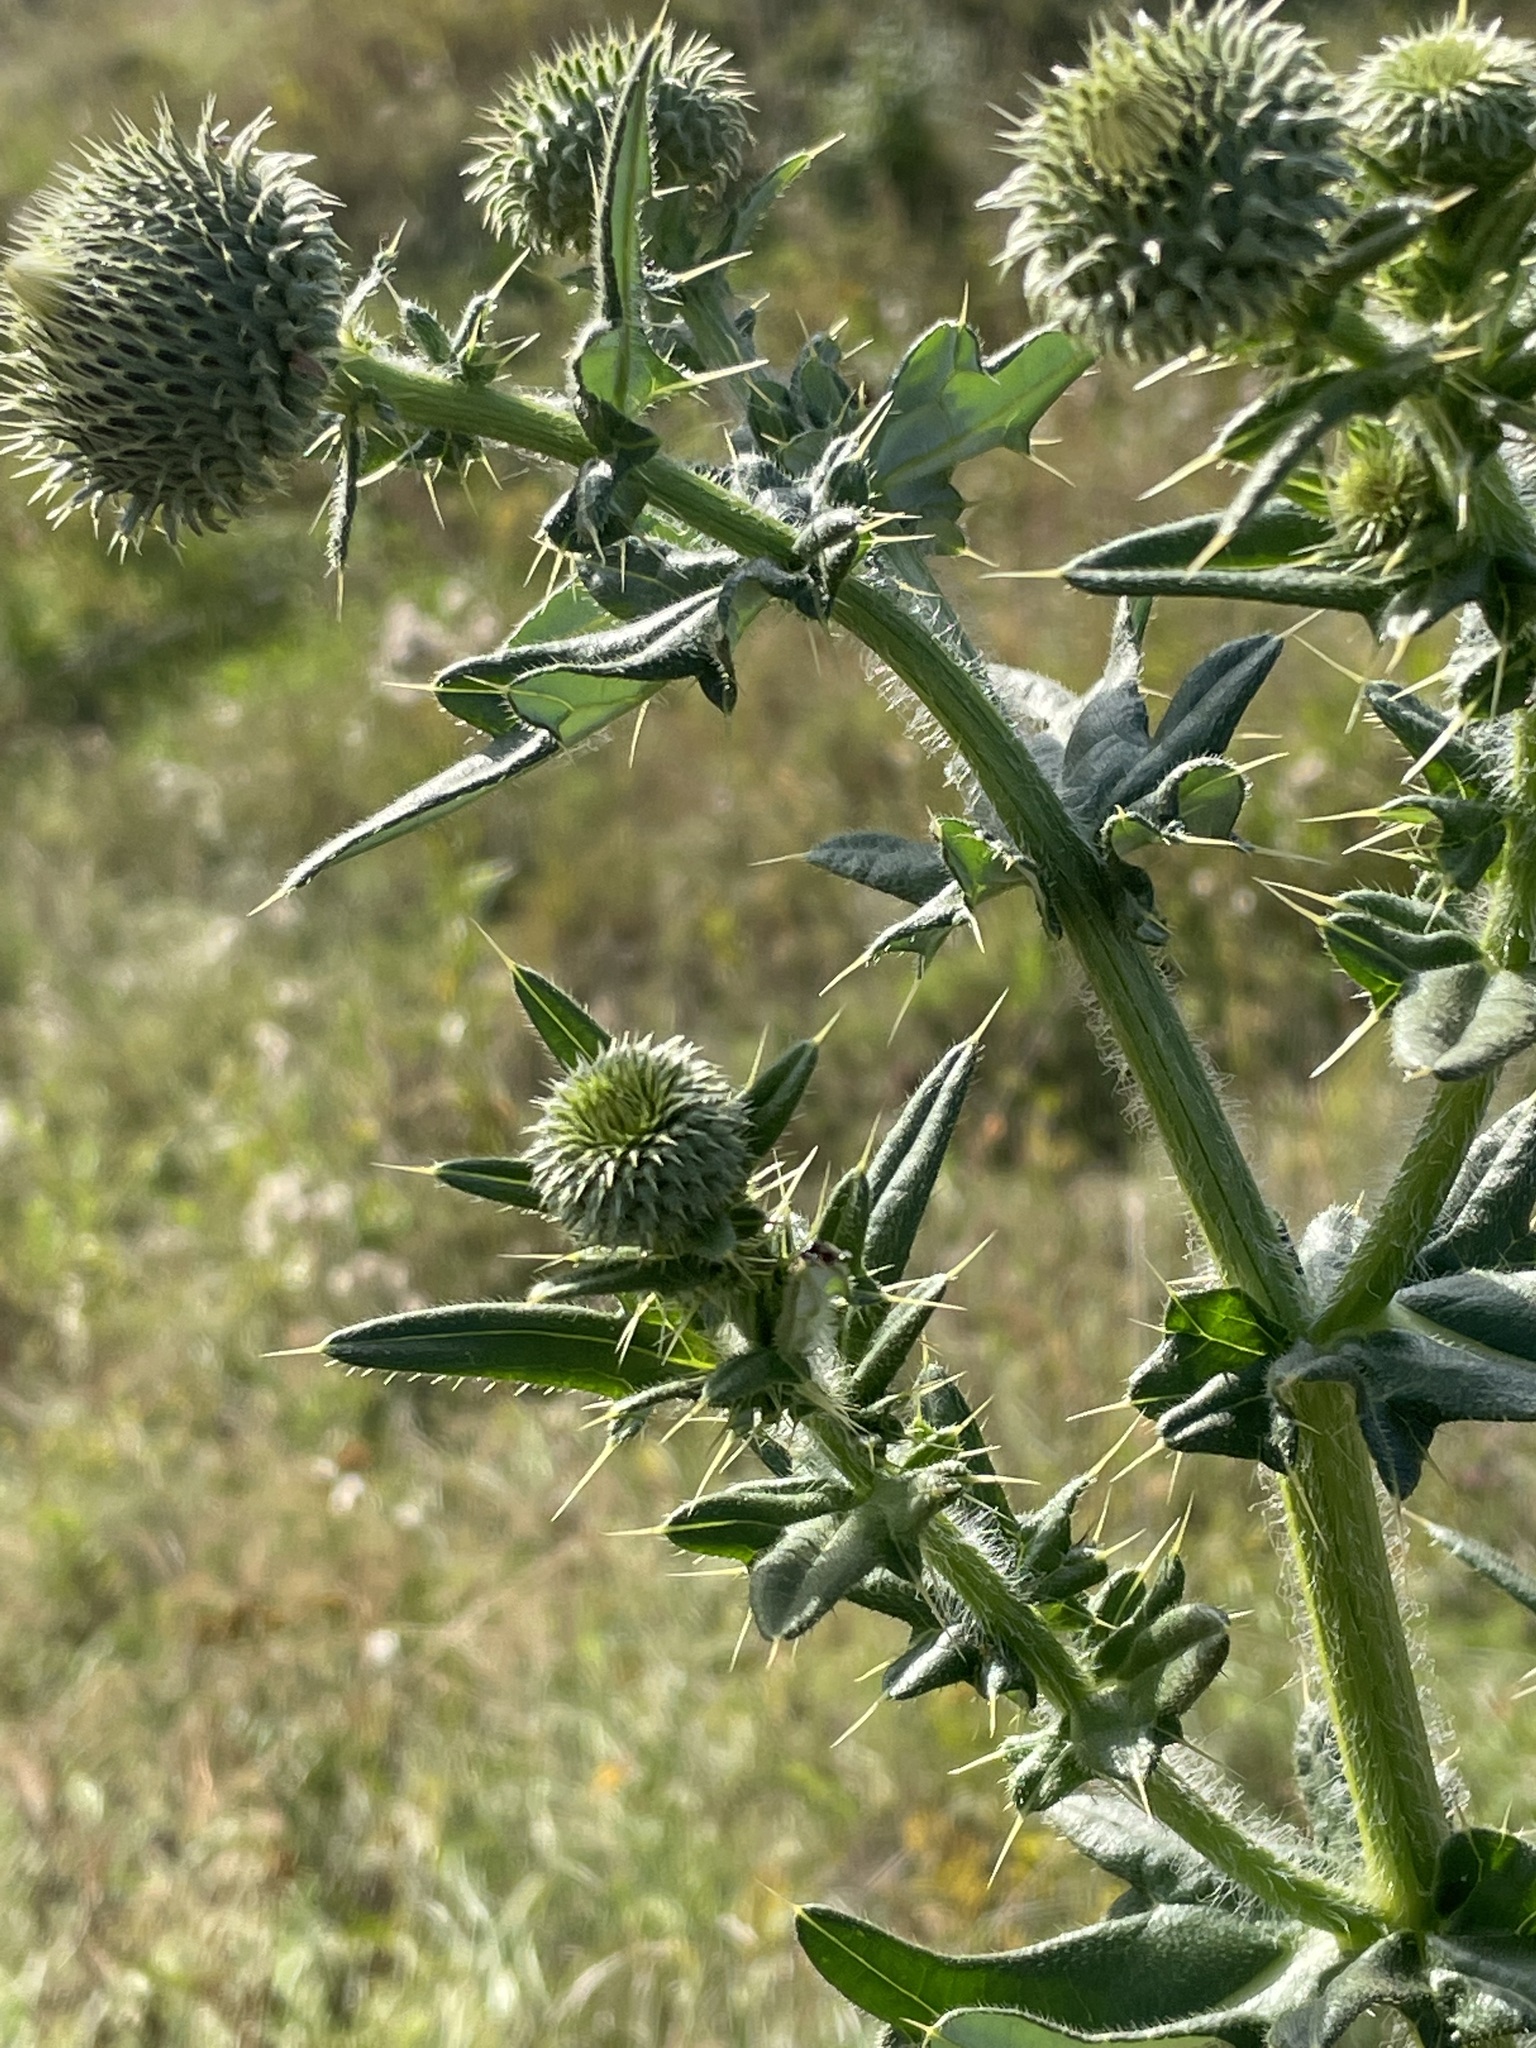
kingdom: Plantae
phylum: Tracheophyta
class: Magnoliopsida
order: Asterales
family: Asteraceae
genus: Cirsium
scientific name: Cirsium serrulatum
